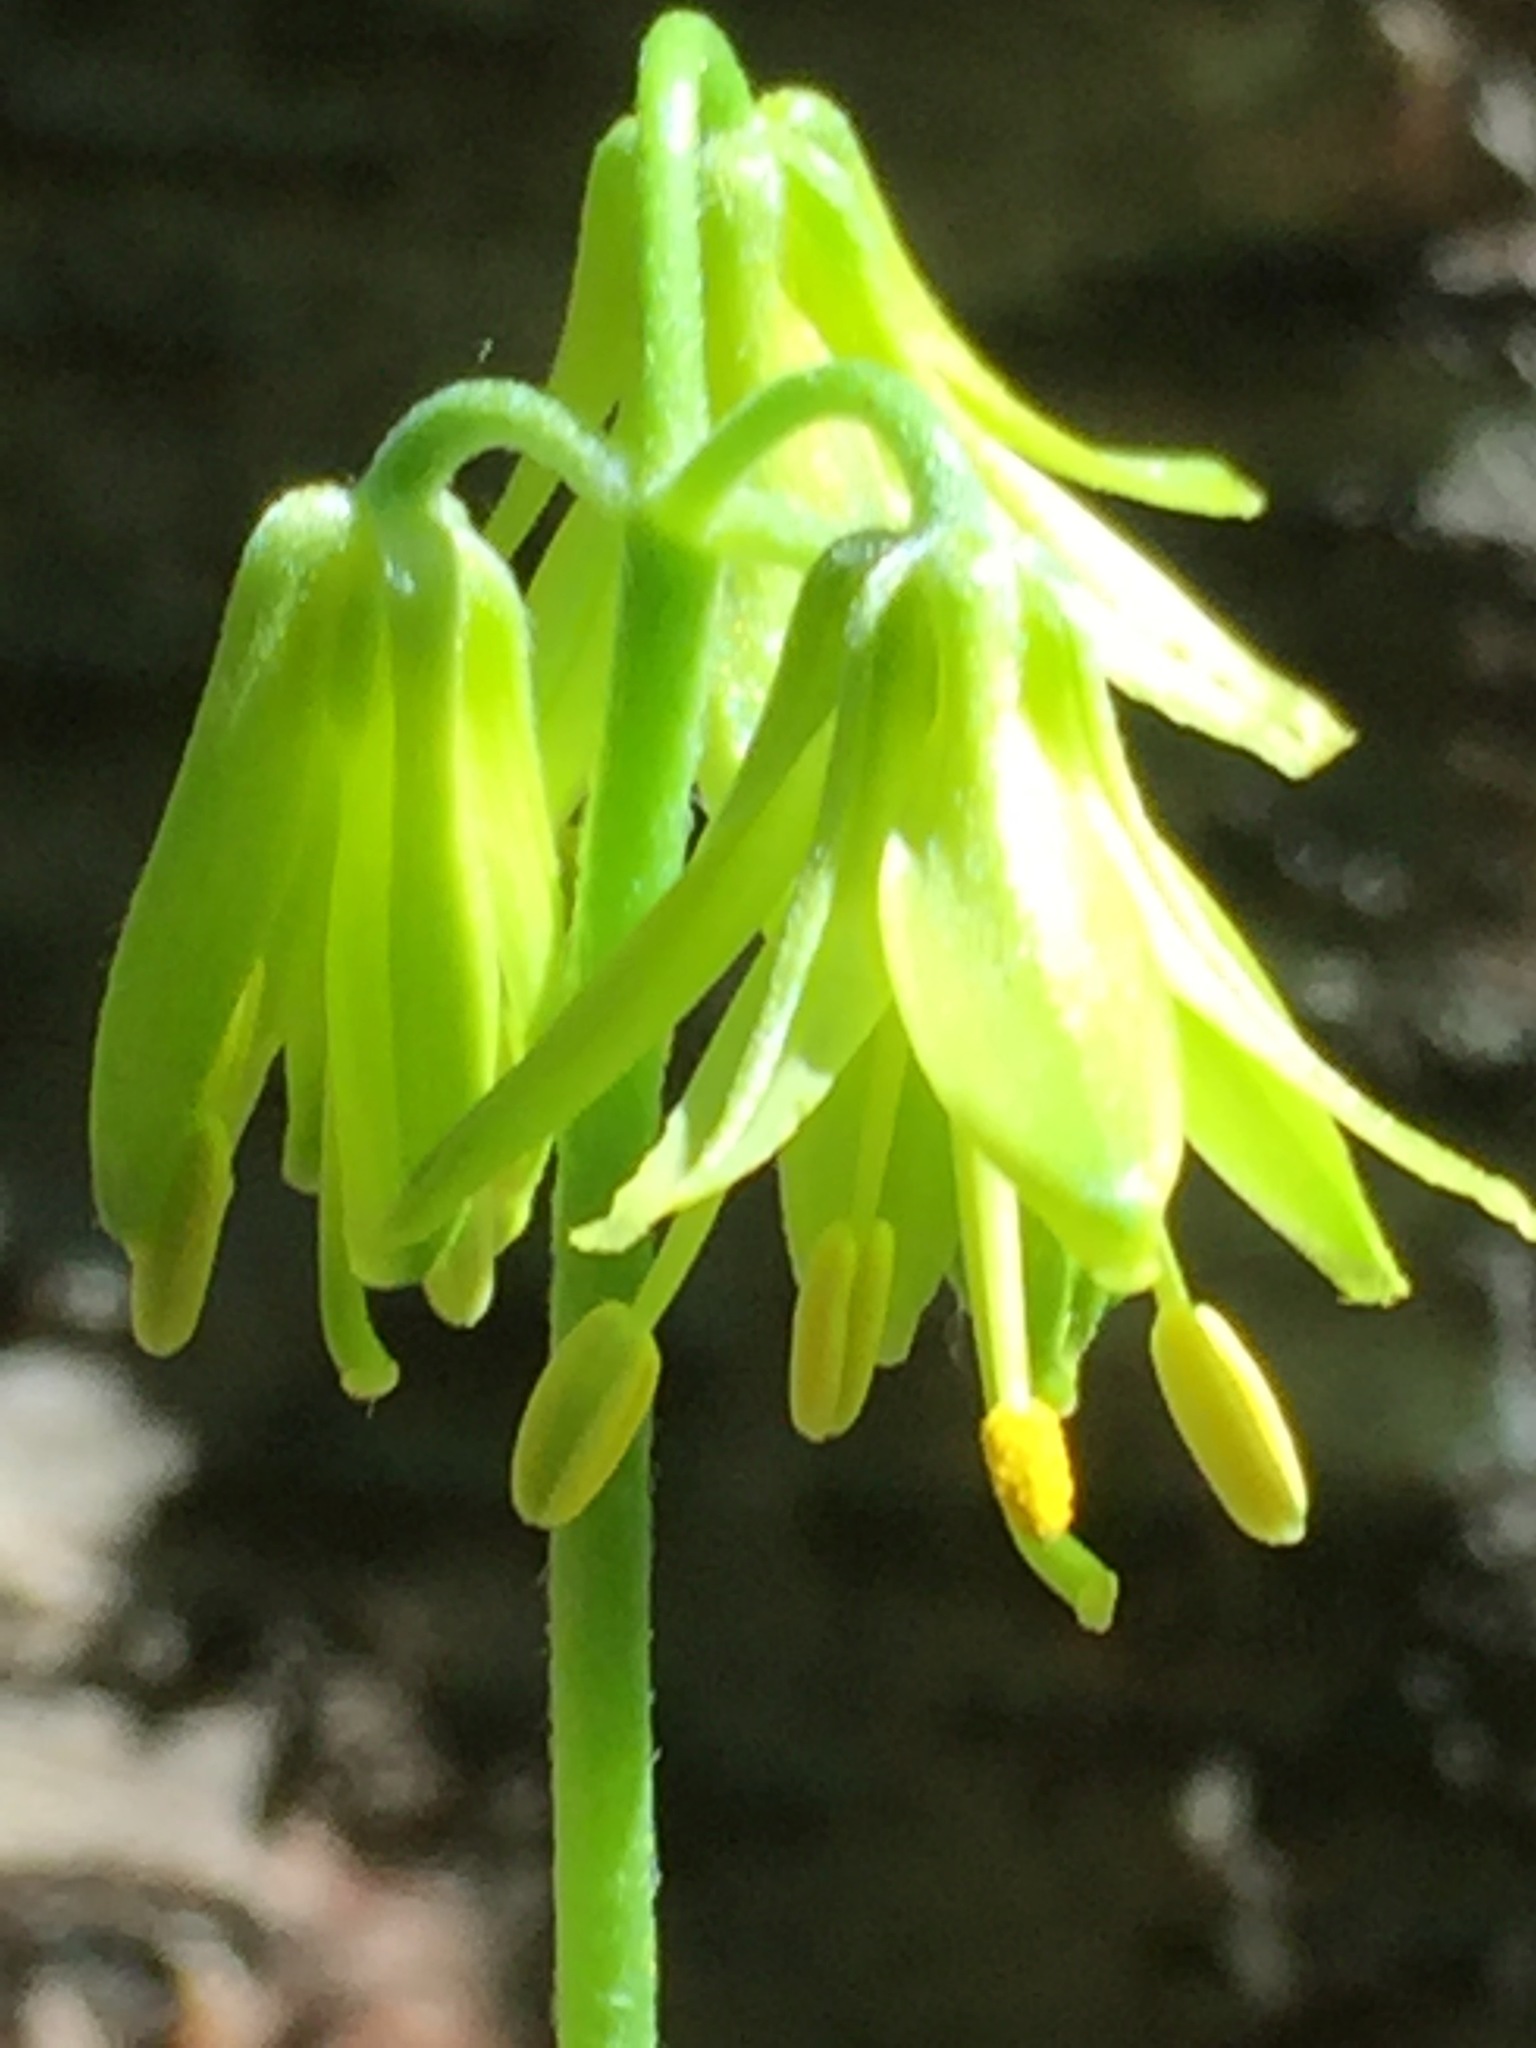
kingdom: Plantae
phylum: Tracheophyta
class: Liliopsida
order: Liliales
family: Liliaceae
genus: Clintonia
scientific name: Clintonia borealis
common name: Yellow clintonia
